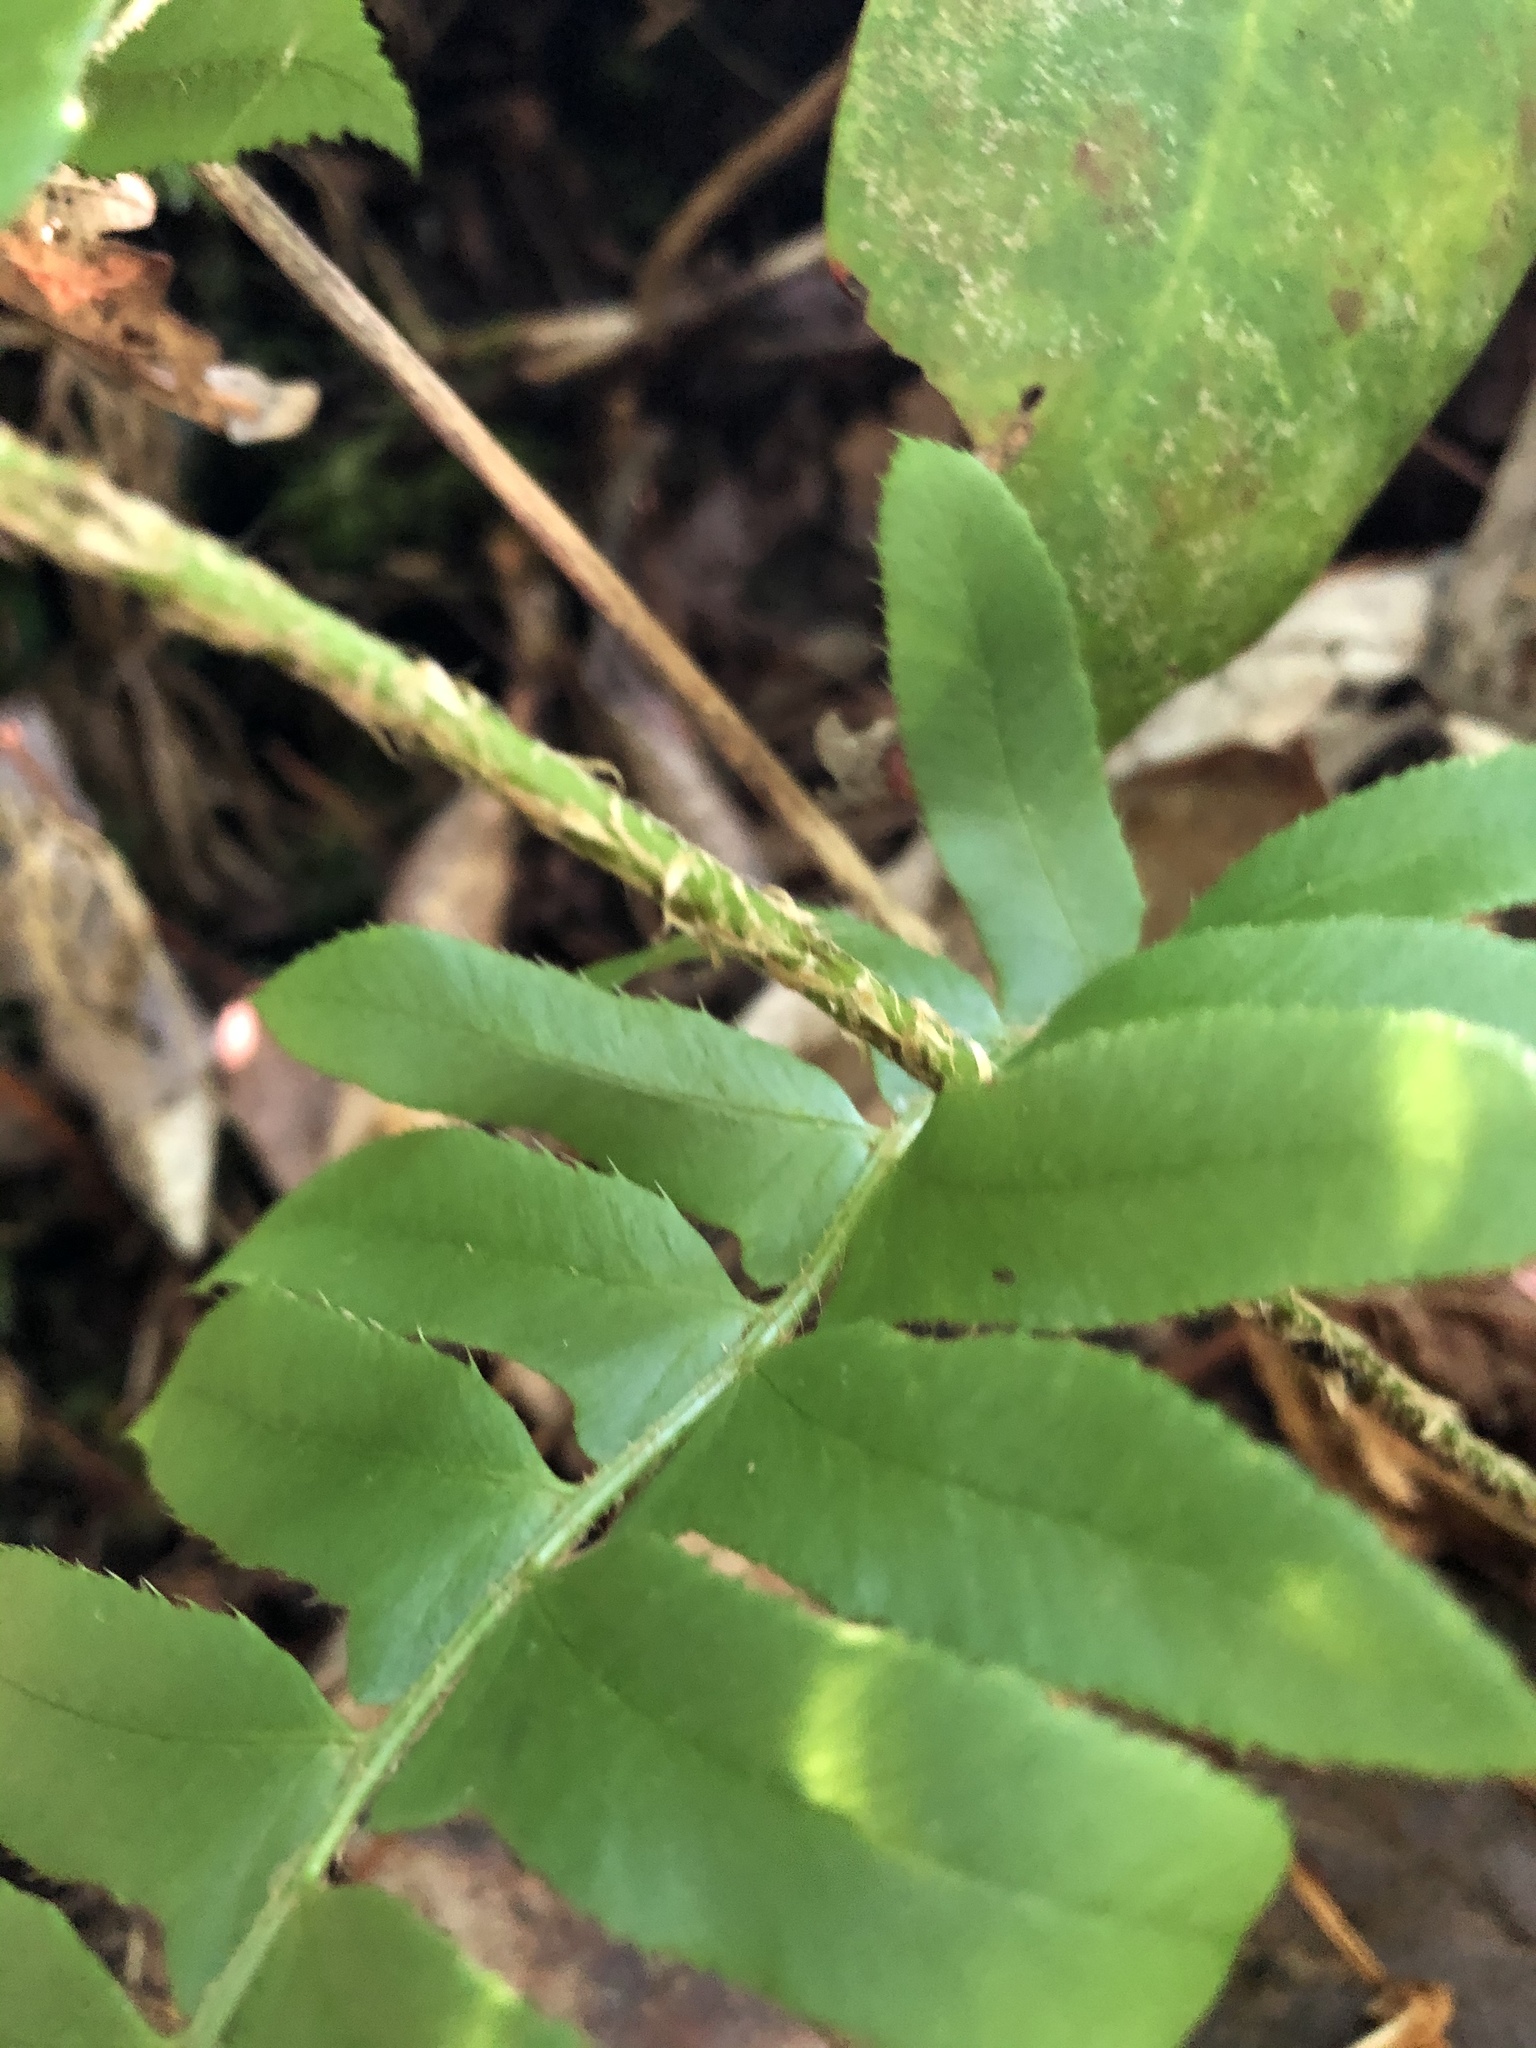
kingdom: Plantae
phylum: Tracheophyta
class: Polypodiopsida
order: Polypodiales
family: Dryopteridaceae
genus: Polystichum
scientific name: Polystichum acrostichoides
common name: Christmas fern
